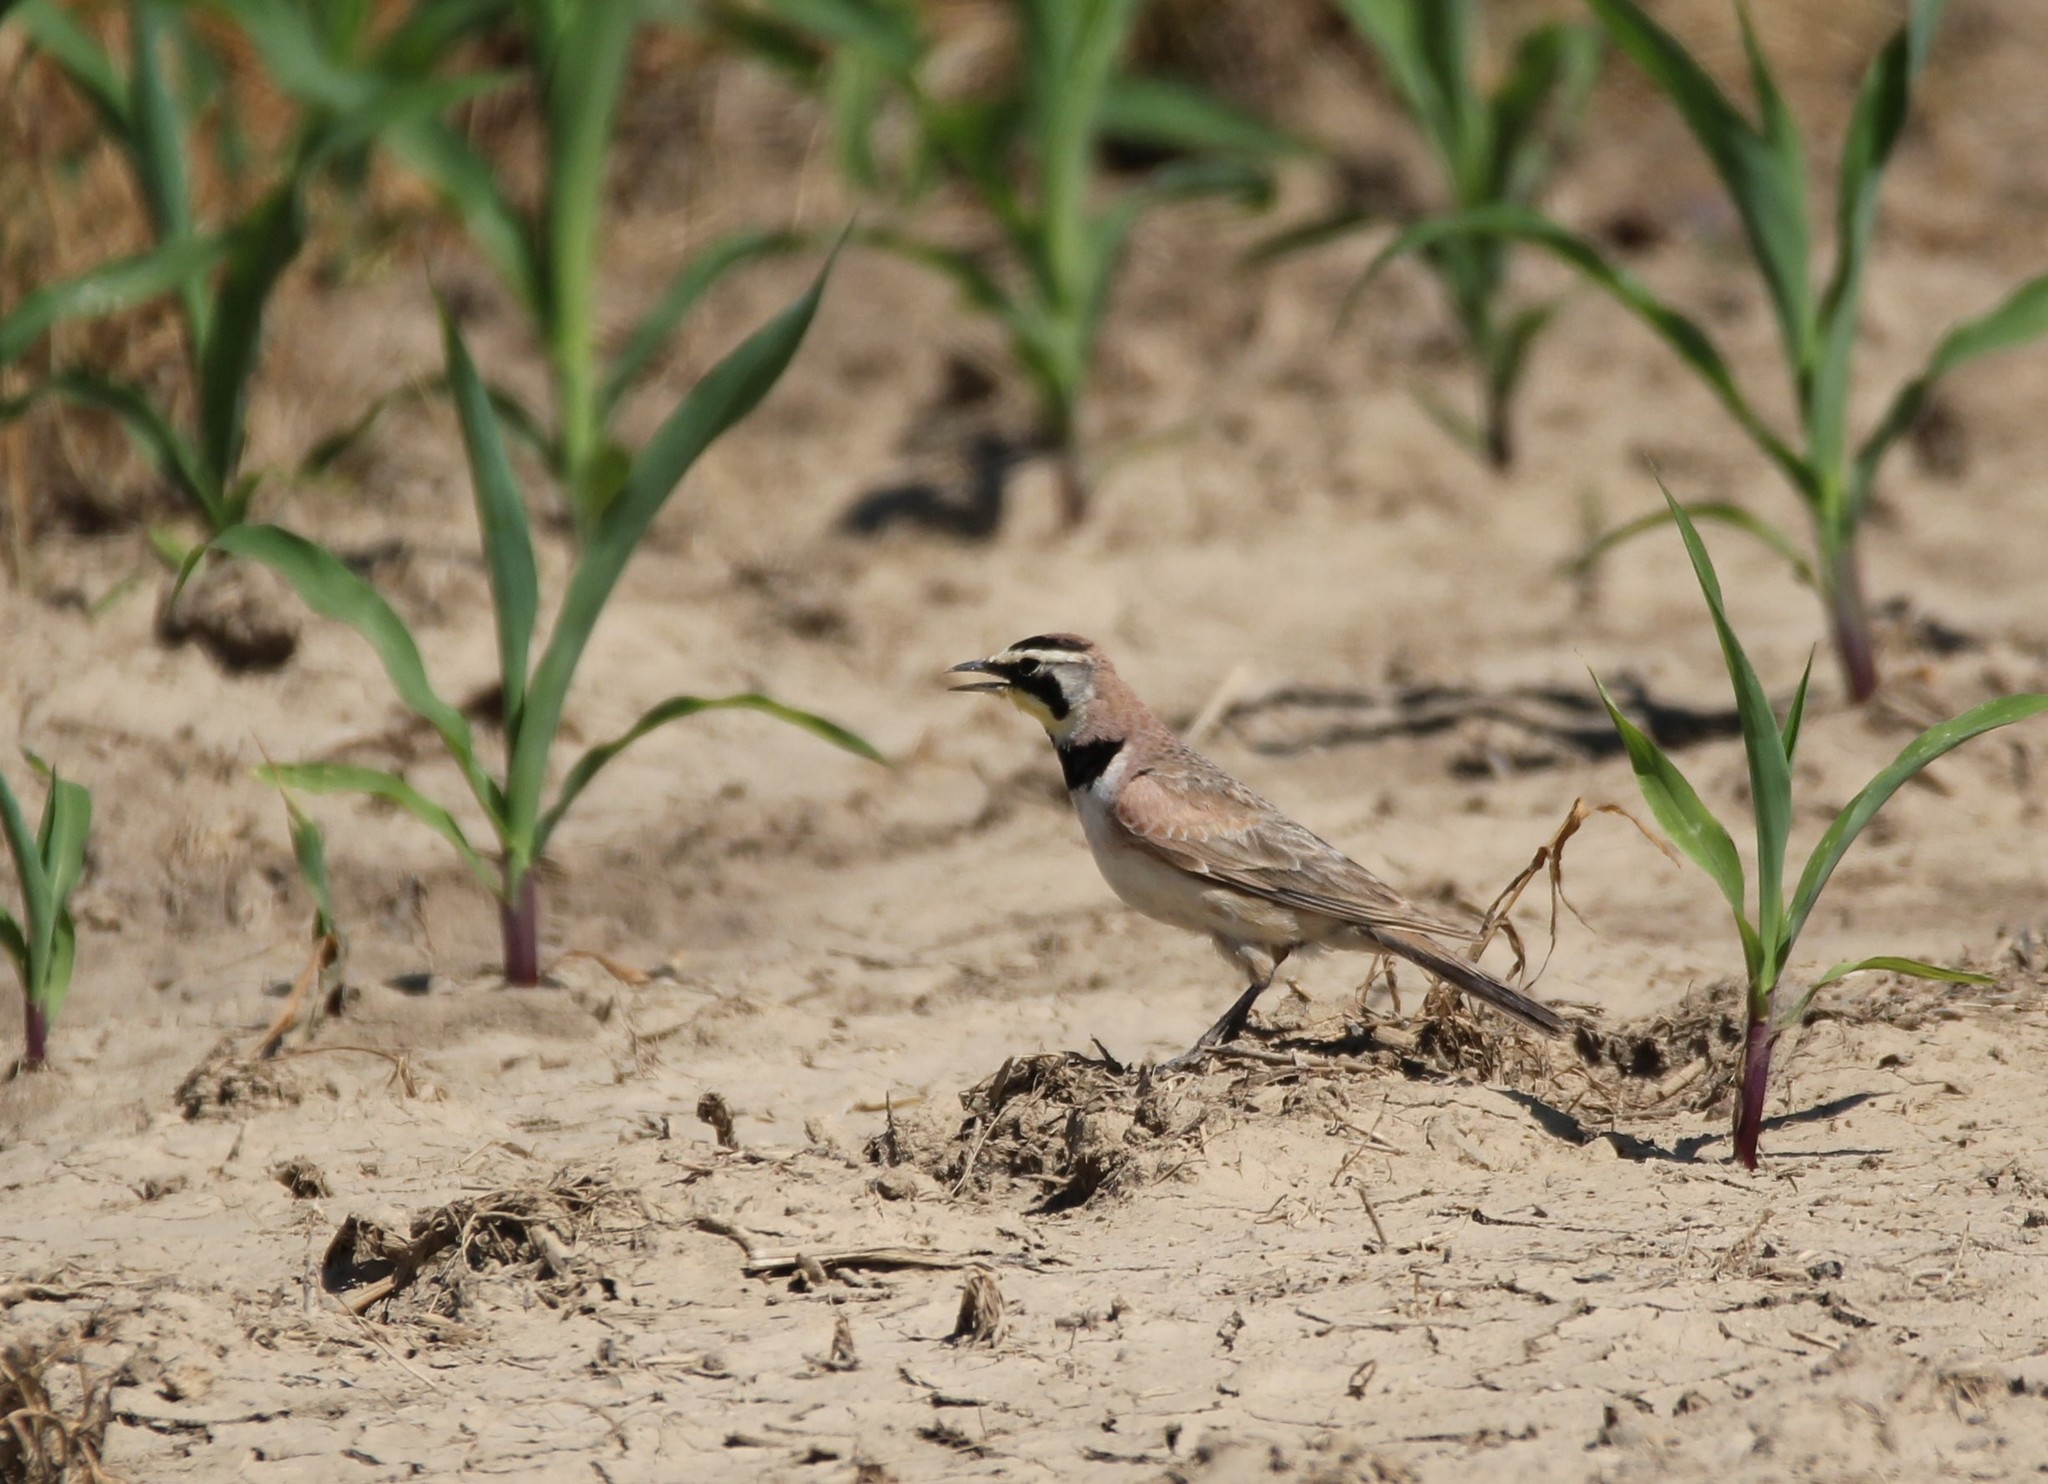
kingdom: Animalia
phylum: Chordata
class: Aves
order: Passeriformes
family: Alaudidae
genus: Eremophila
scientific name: Eremophila alpestris
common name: Horned lark
